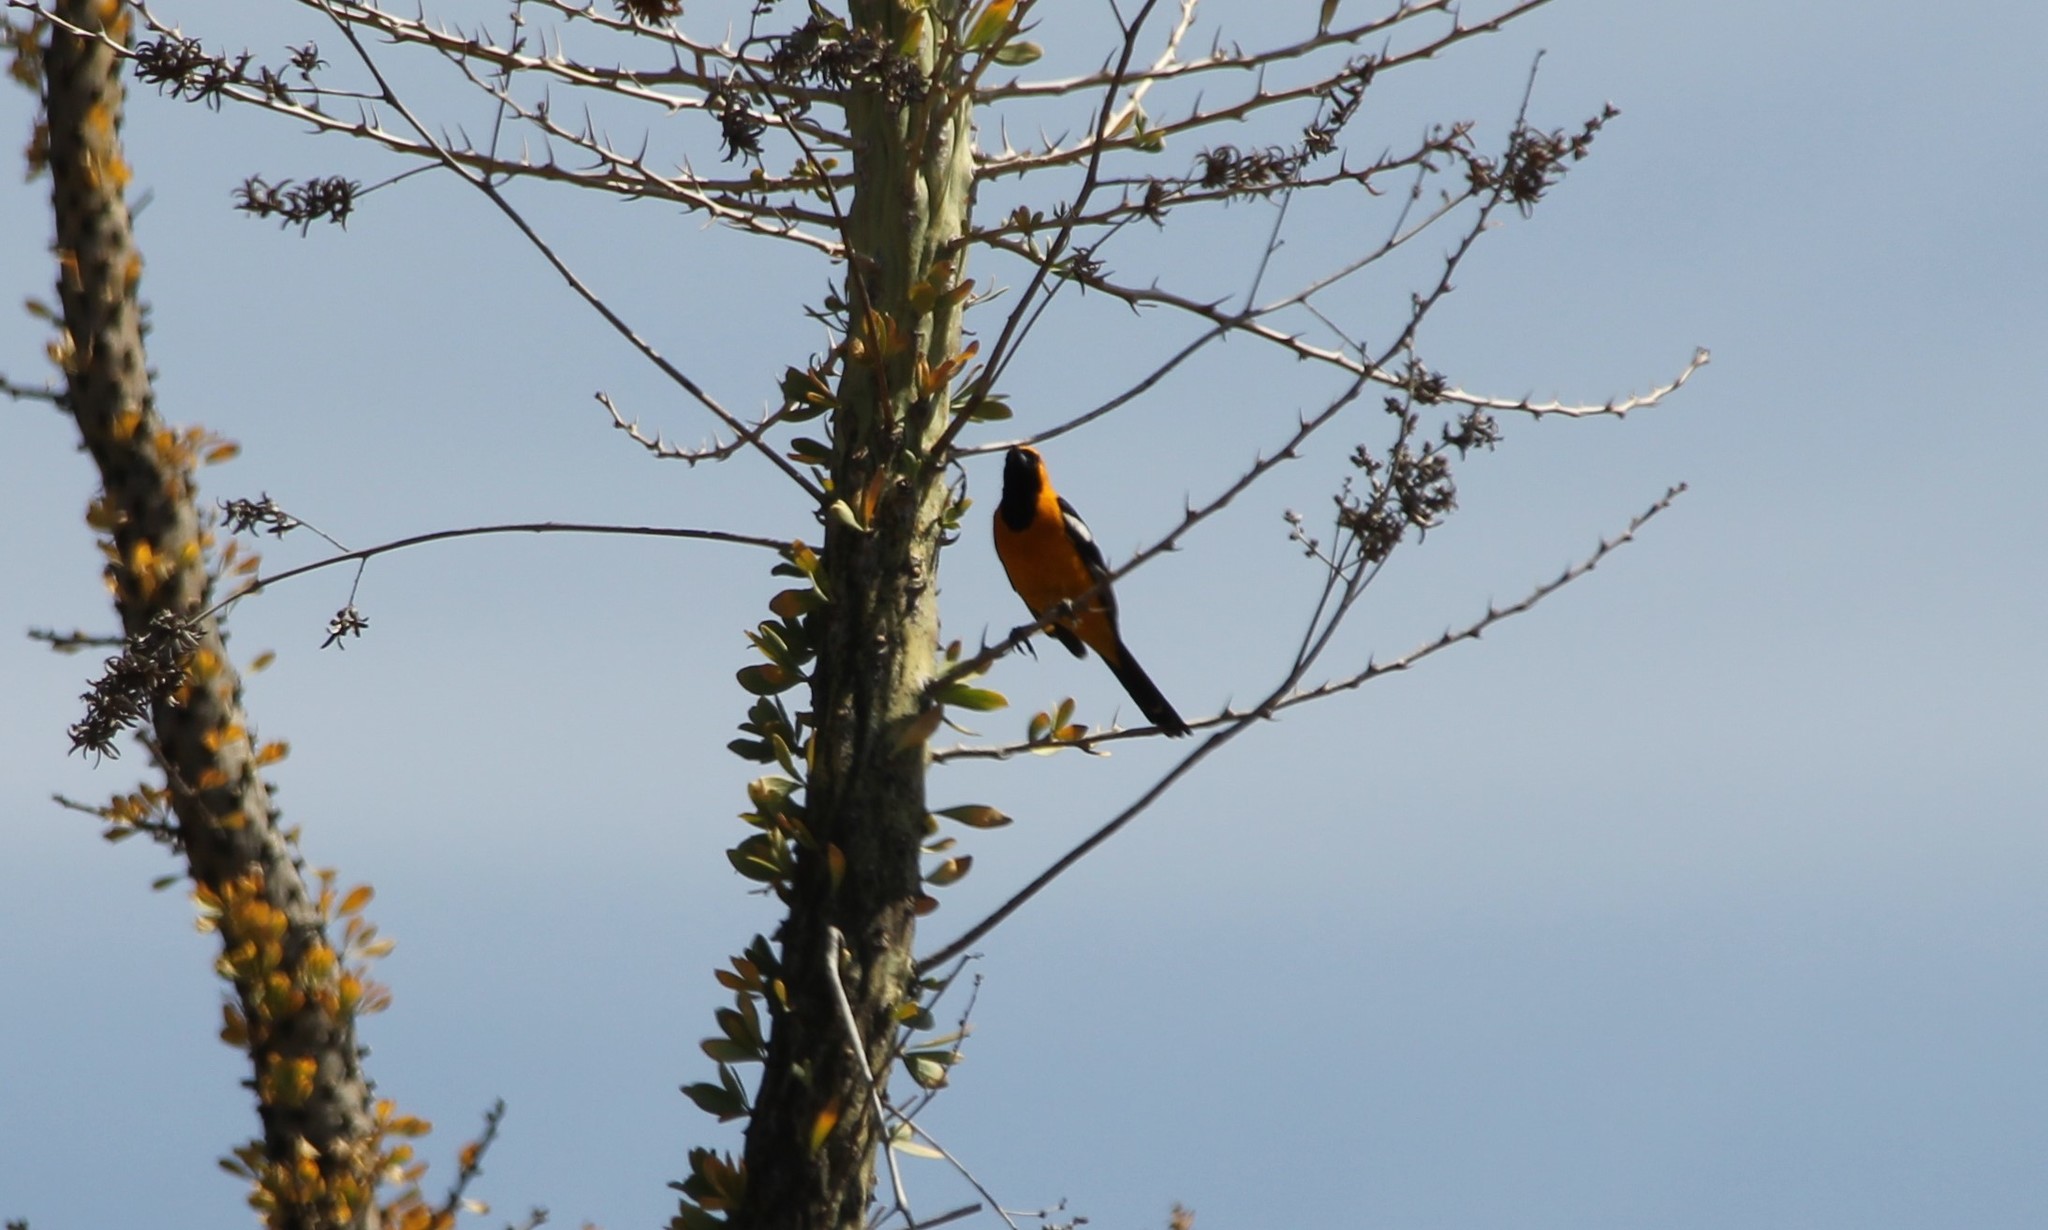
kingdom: Animalia
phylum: Chordata
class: Aves
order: Passeriformes
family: Icteridae
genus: Icterus
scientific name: Icterus cucullatus
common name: Hooded oriole
